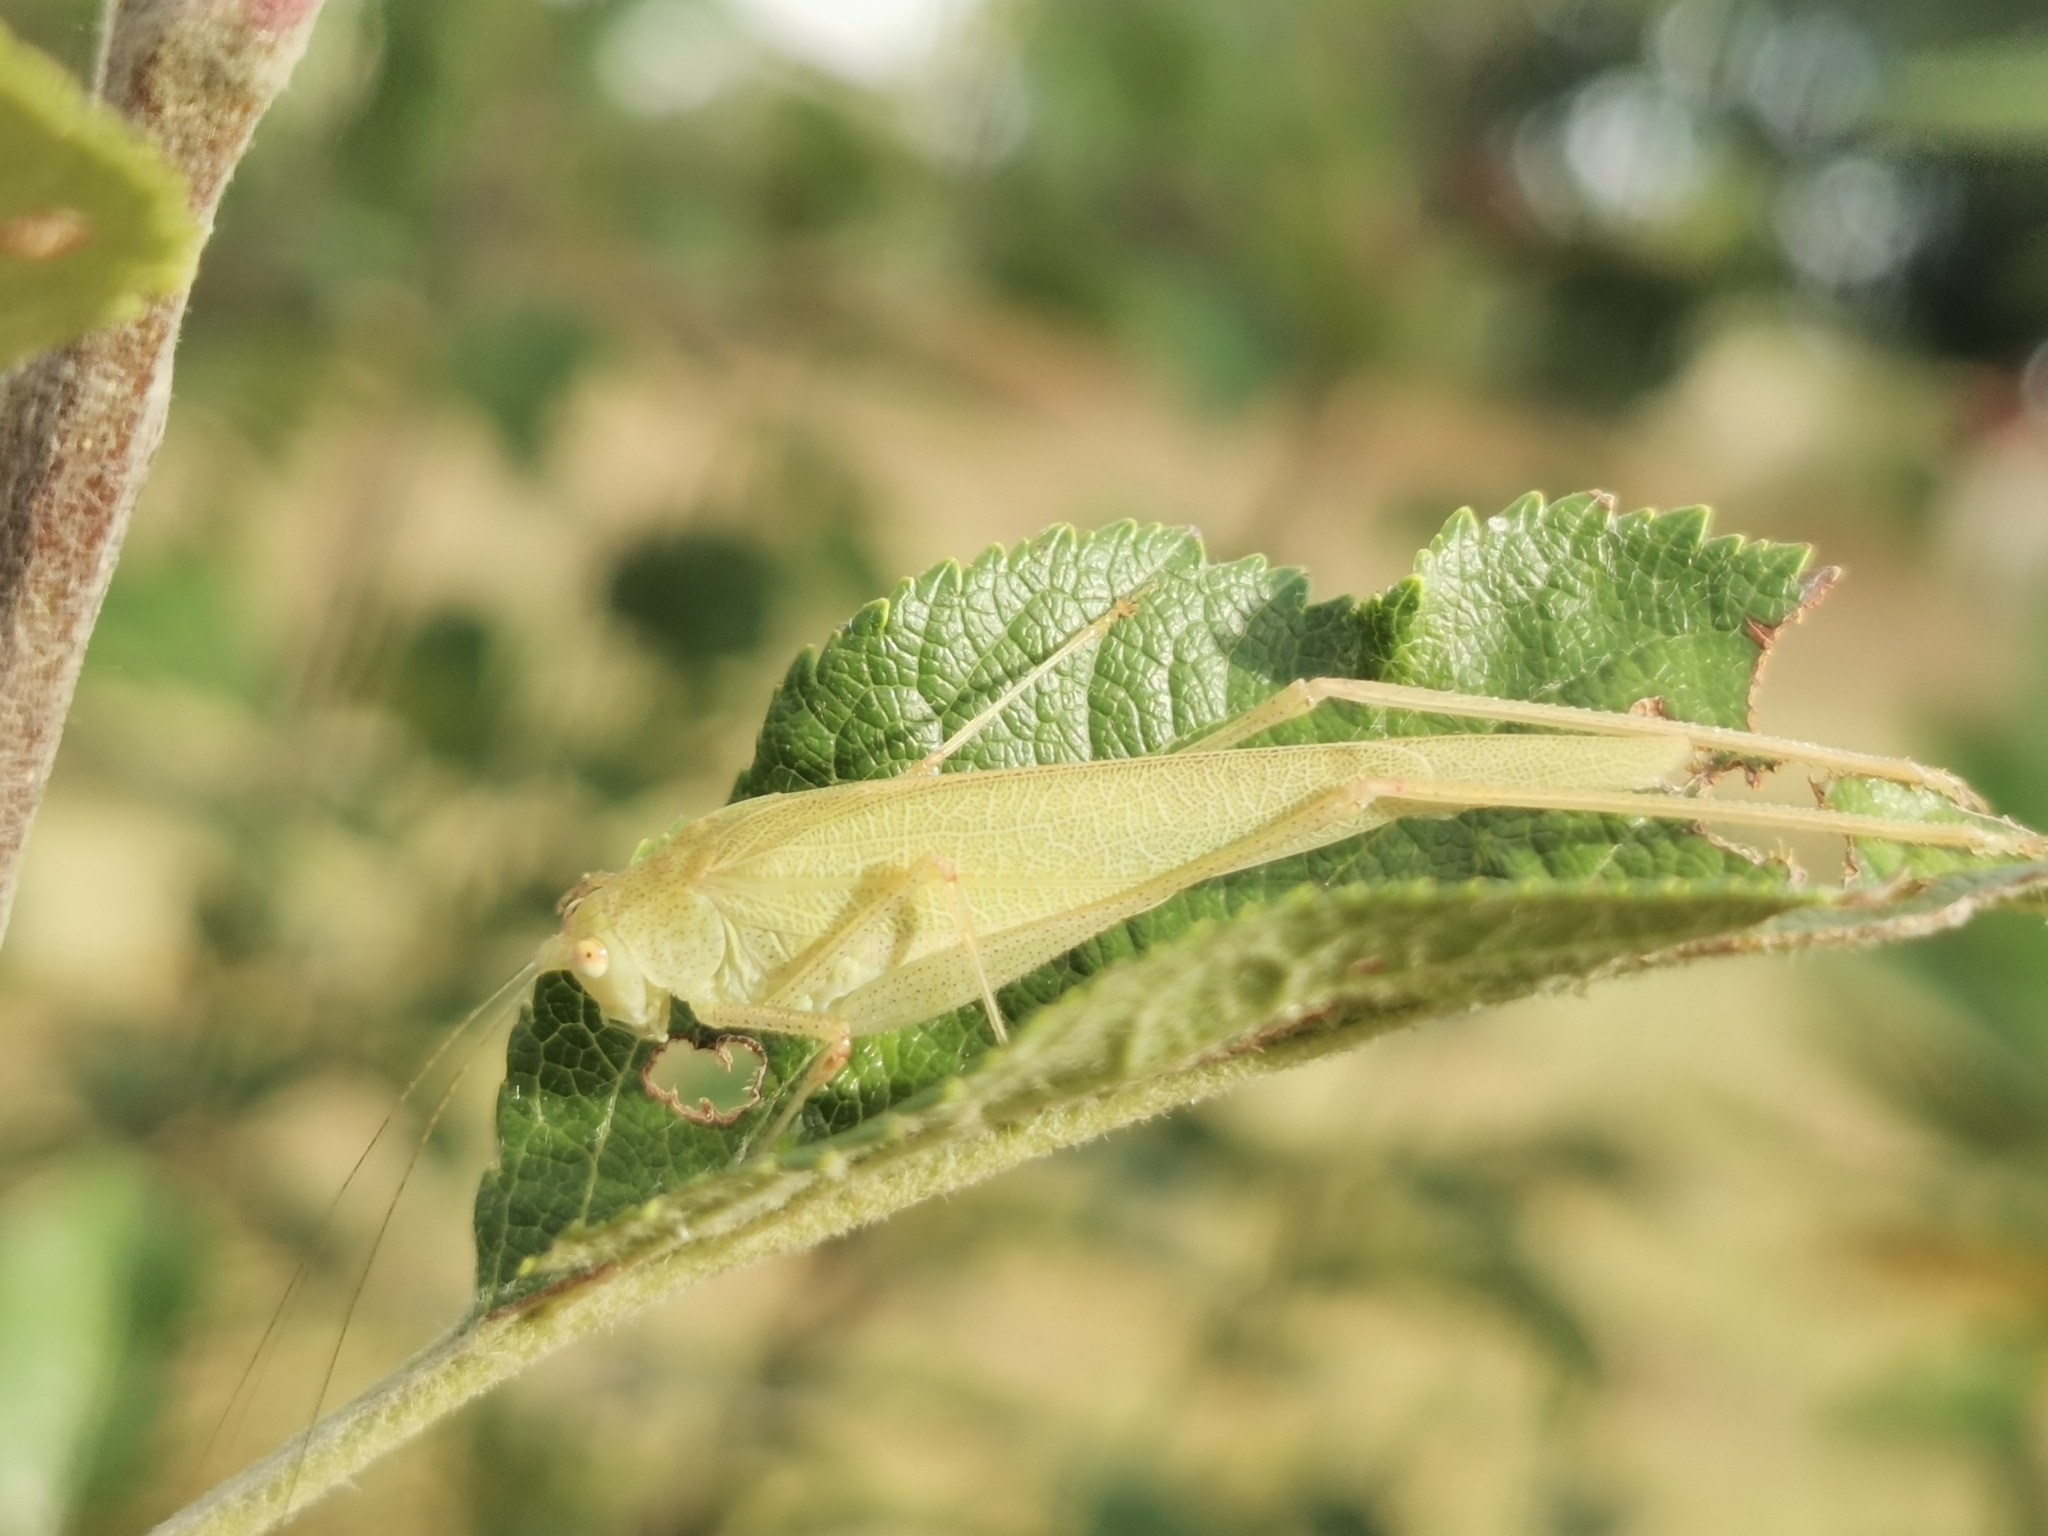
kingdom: Animalia
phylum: Arthropoda
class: Insecta
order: Orthoptera
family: Tettigoniidae
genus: Phaneroptera
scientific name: Phaneroptera nana
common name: Southern sickle bush-cricket
